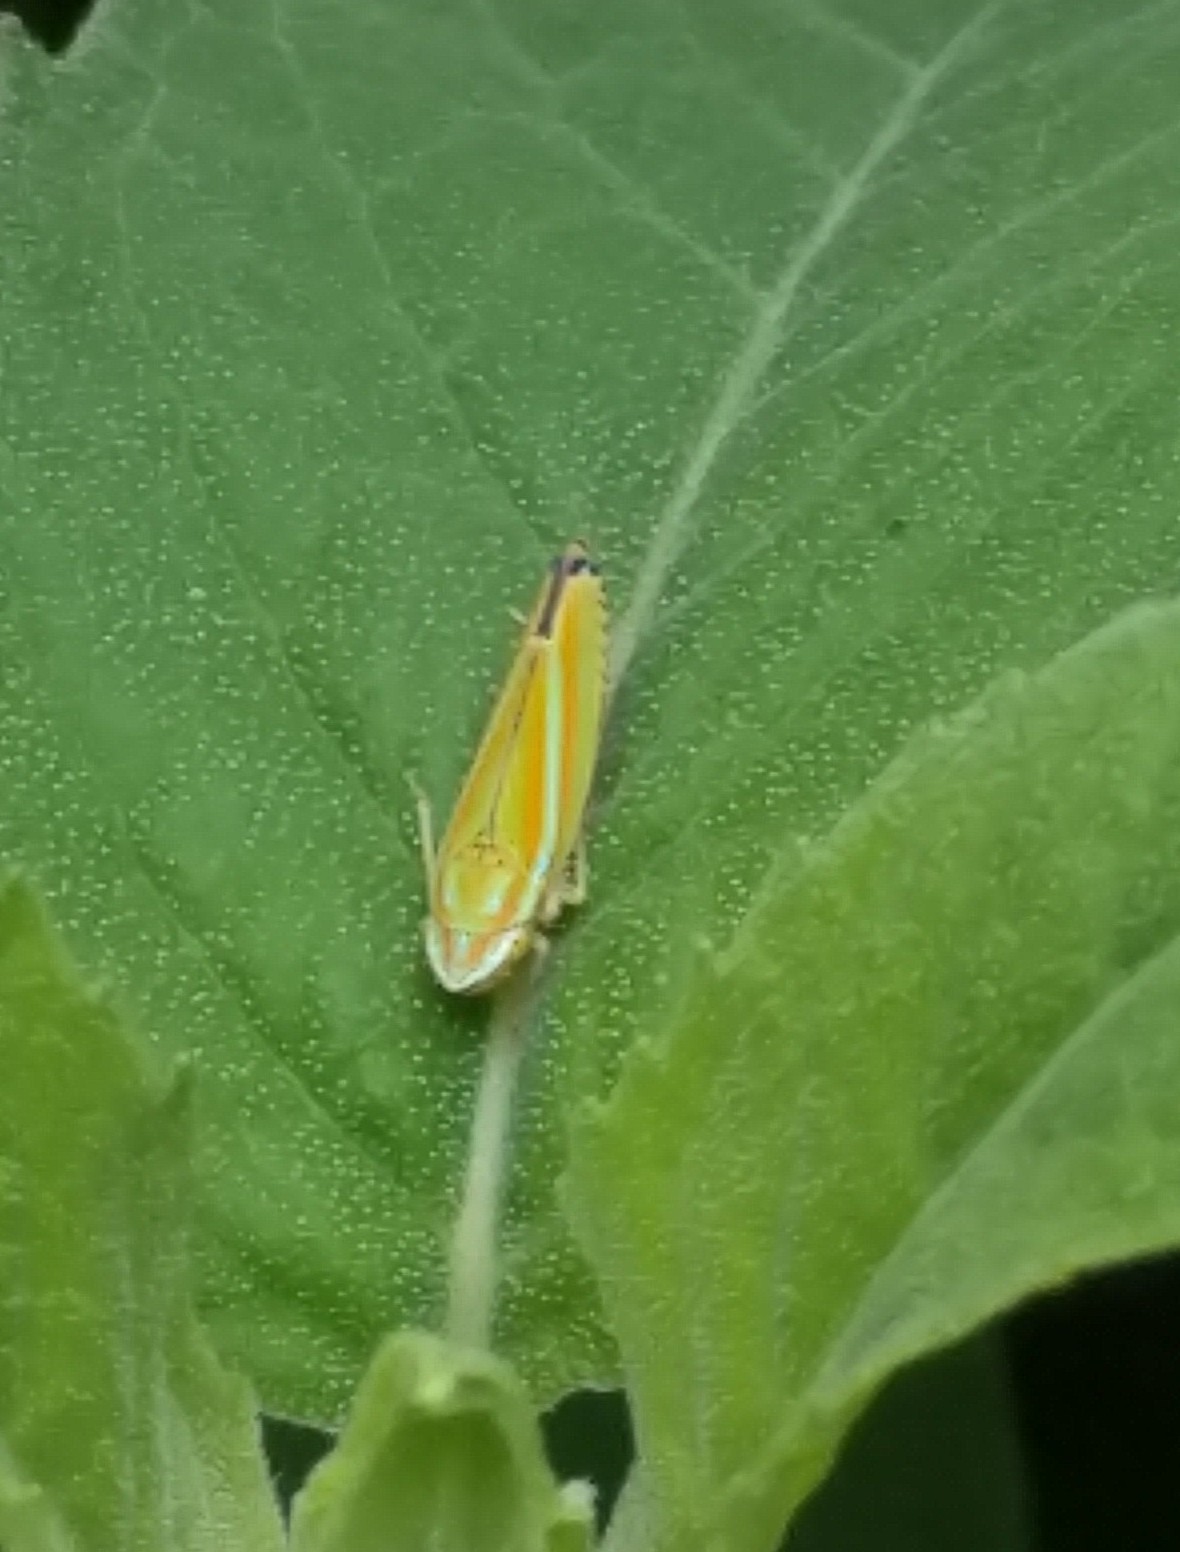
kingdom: Animalia
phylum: Arthropoda
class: Insecta
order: Hemiptera
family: Cicadellidae
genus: Graphocephala
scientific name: Graphocephala versuta
